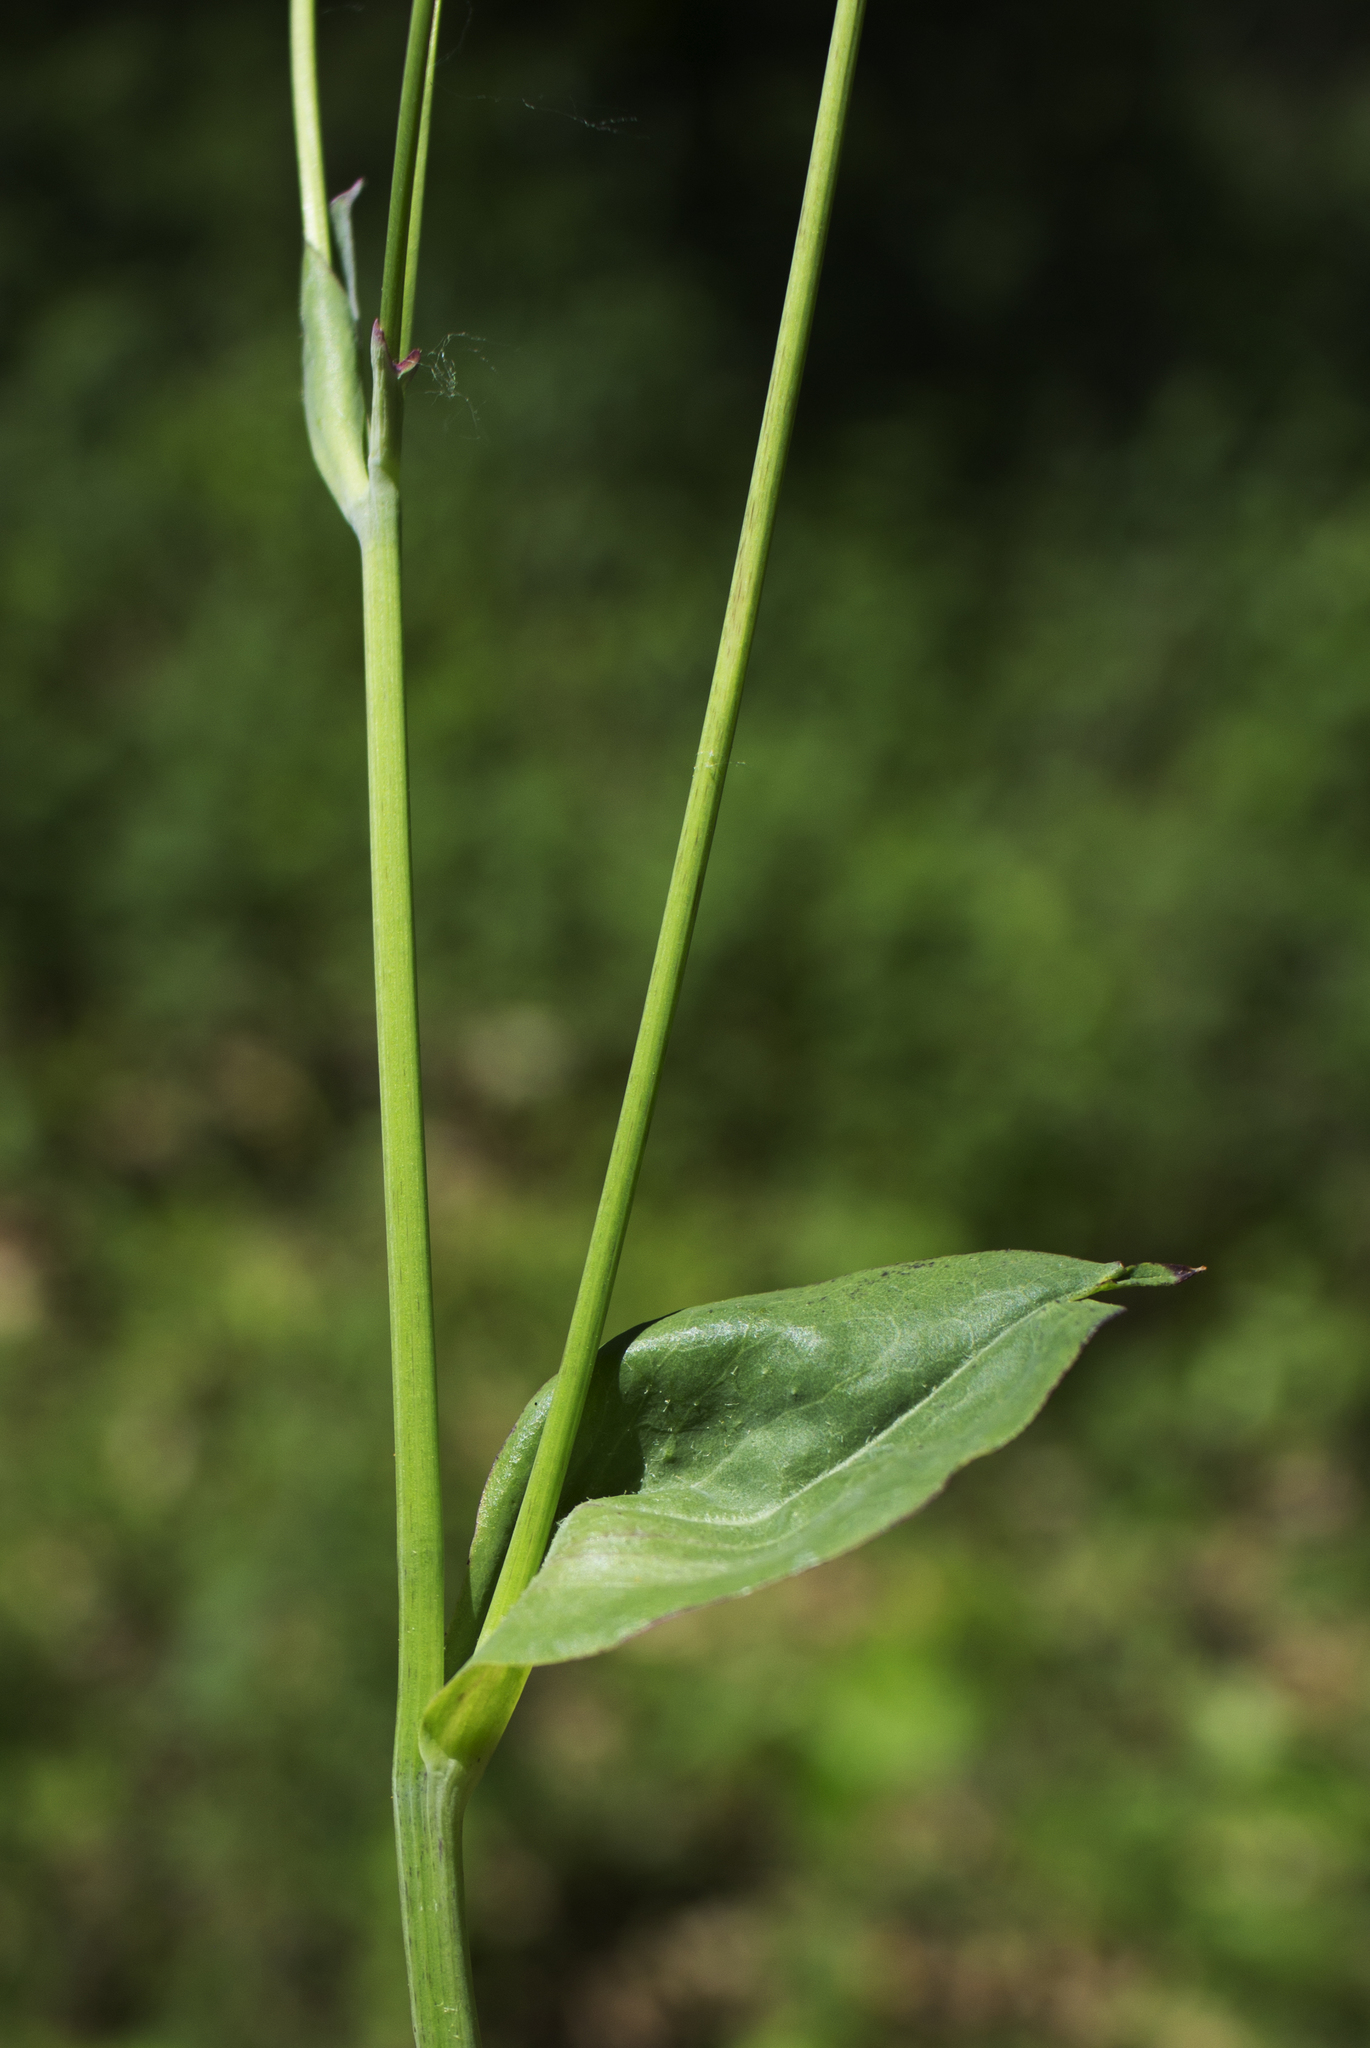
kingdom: Plantae
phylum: Tracheophyta
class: Magnoliopsida
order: Asterales
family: Asteraceae
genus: Krigia
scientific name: Krigia biflora
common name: Orange dwarf-dandelion
